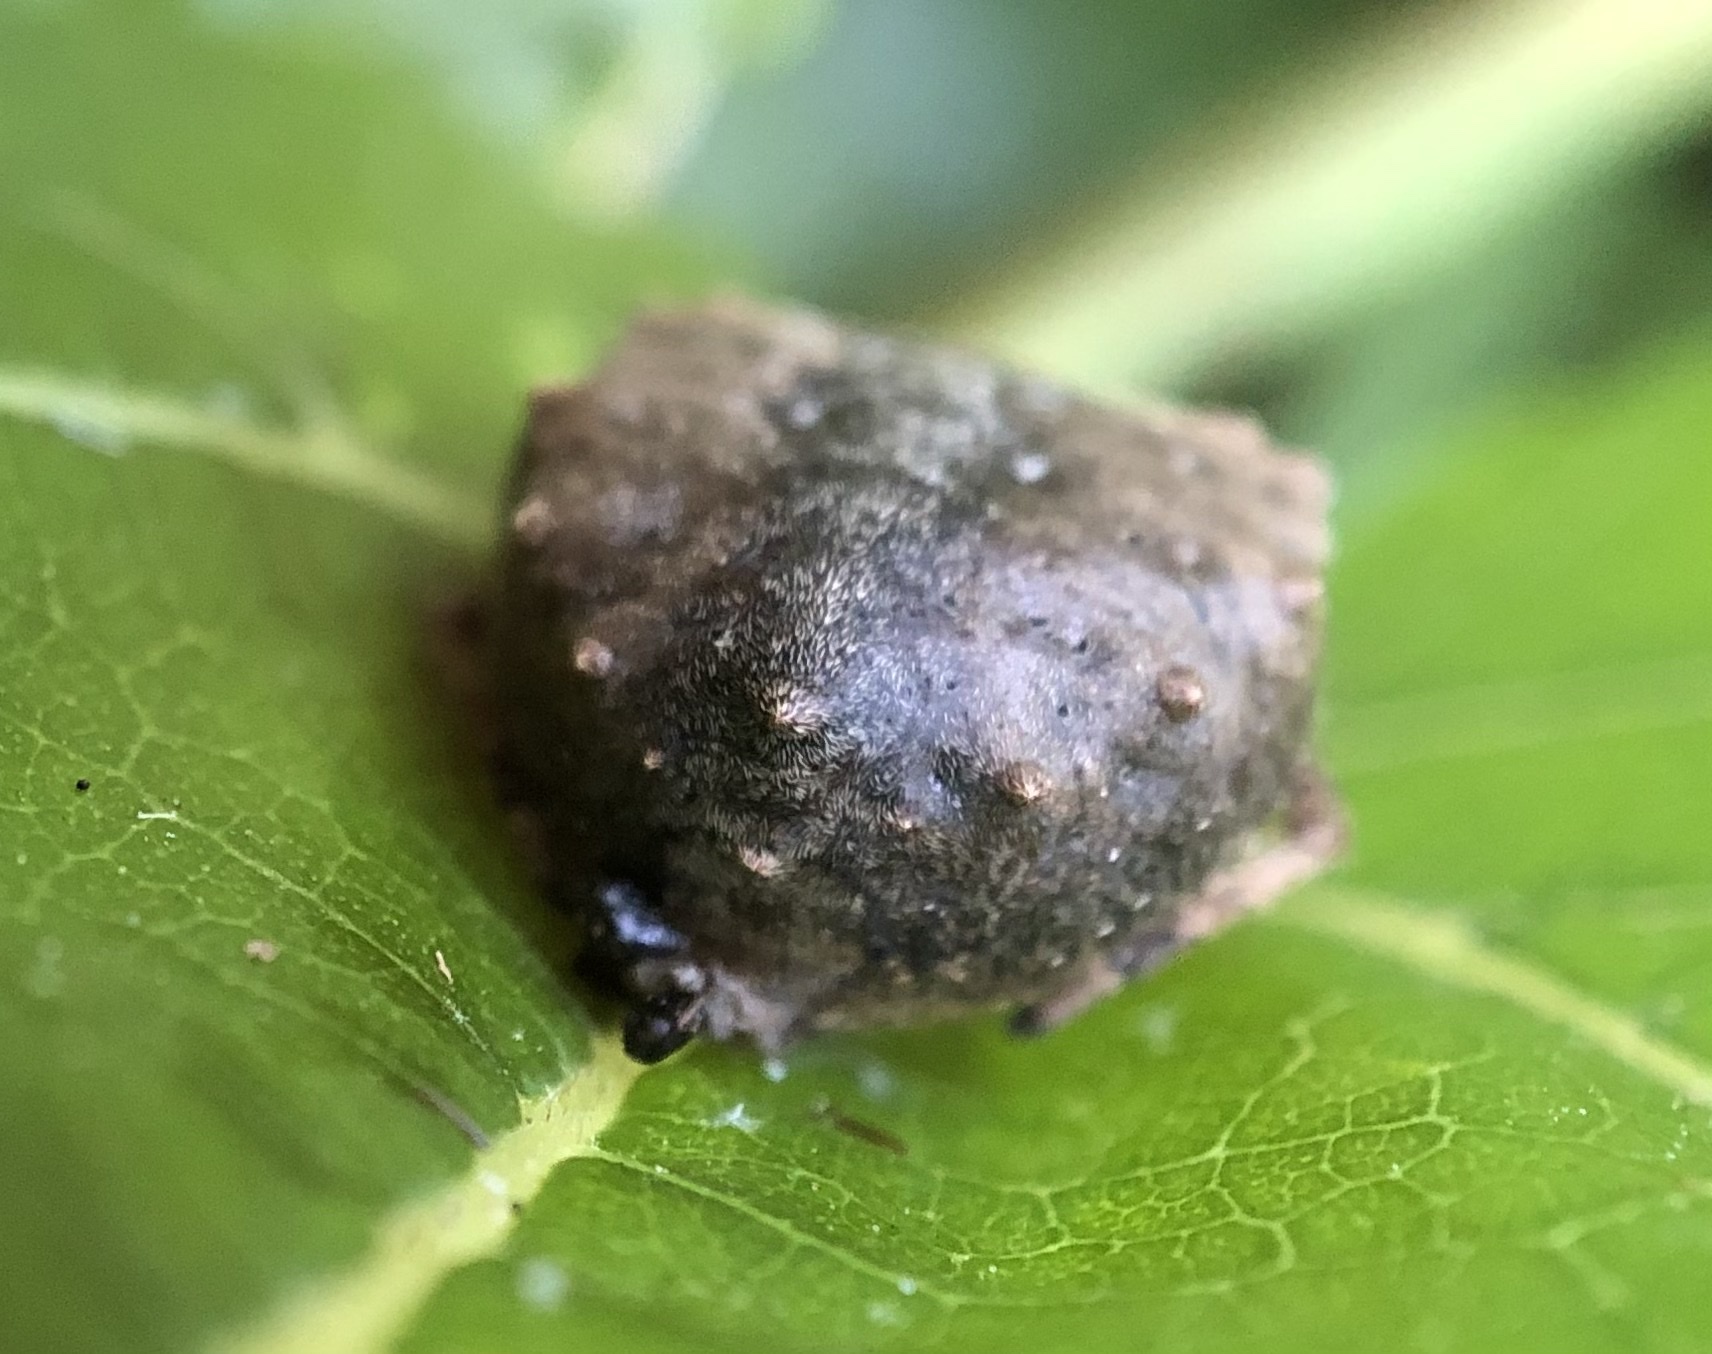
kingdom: Animalia
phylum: Arthropoda
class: Arachnida
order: Araneae
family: Araneidae
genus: Acanthepeira
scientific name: Acanthepeira cherokee
